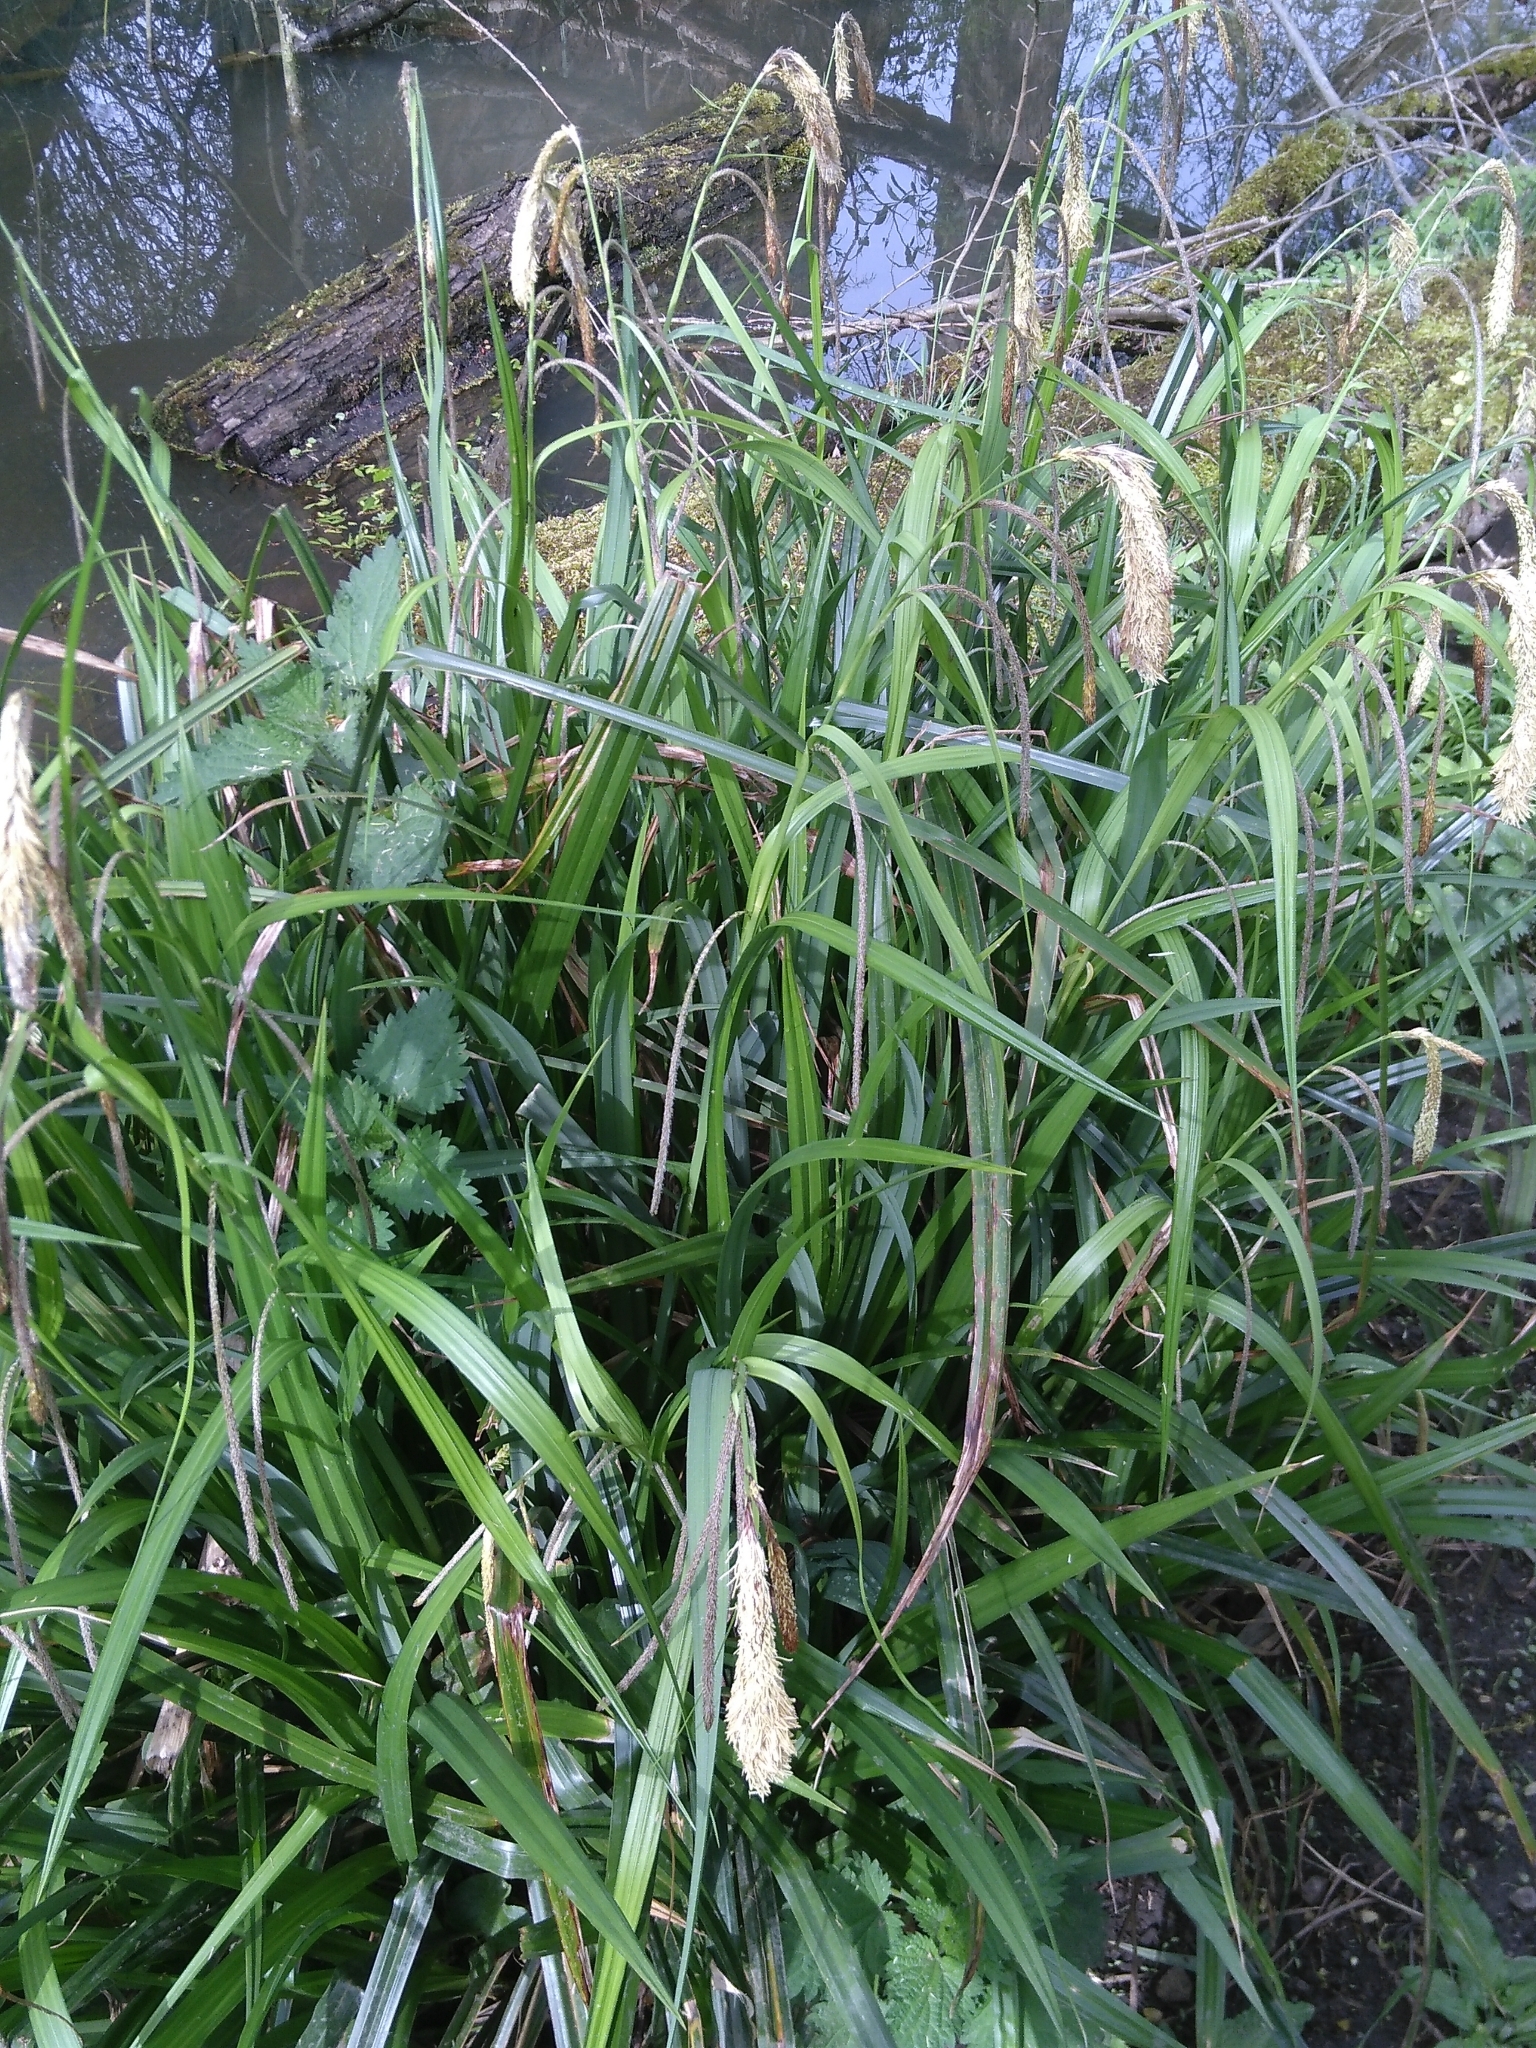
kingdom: Plantae
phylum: Tracheophyta
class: Liliopsida
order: Poales
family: Cyperaceae
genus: Carex
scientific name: Carex pendula
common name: Pendulous sedge
